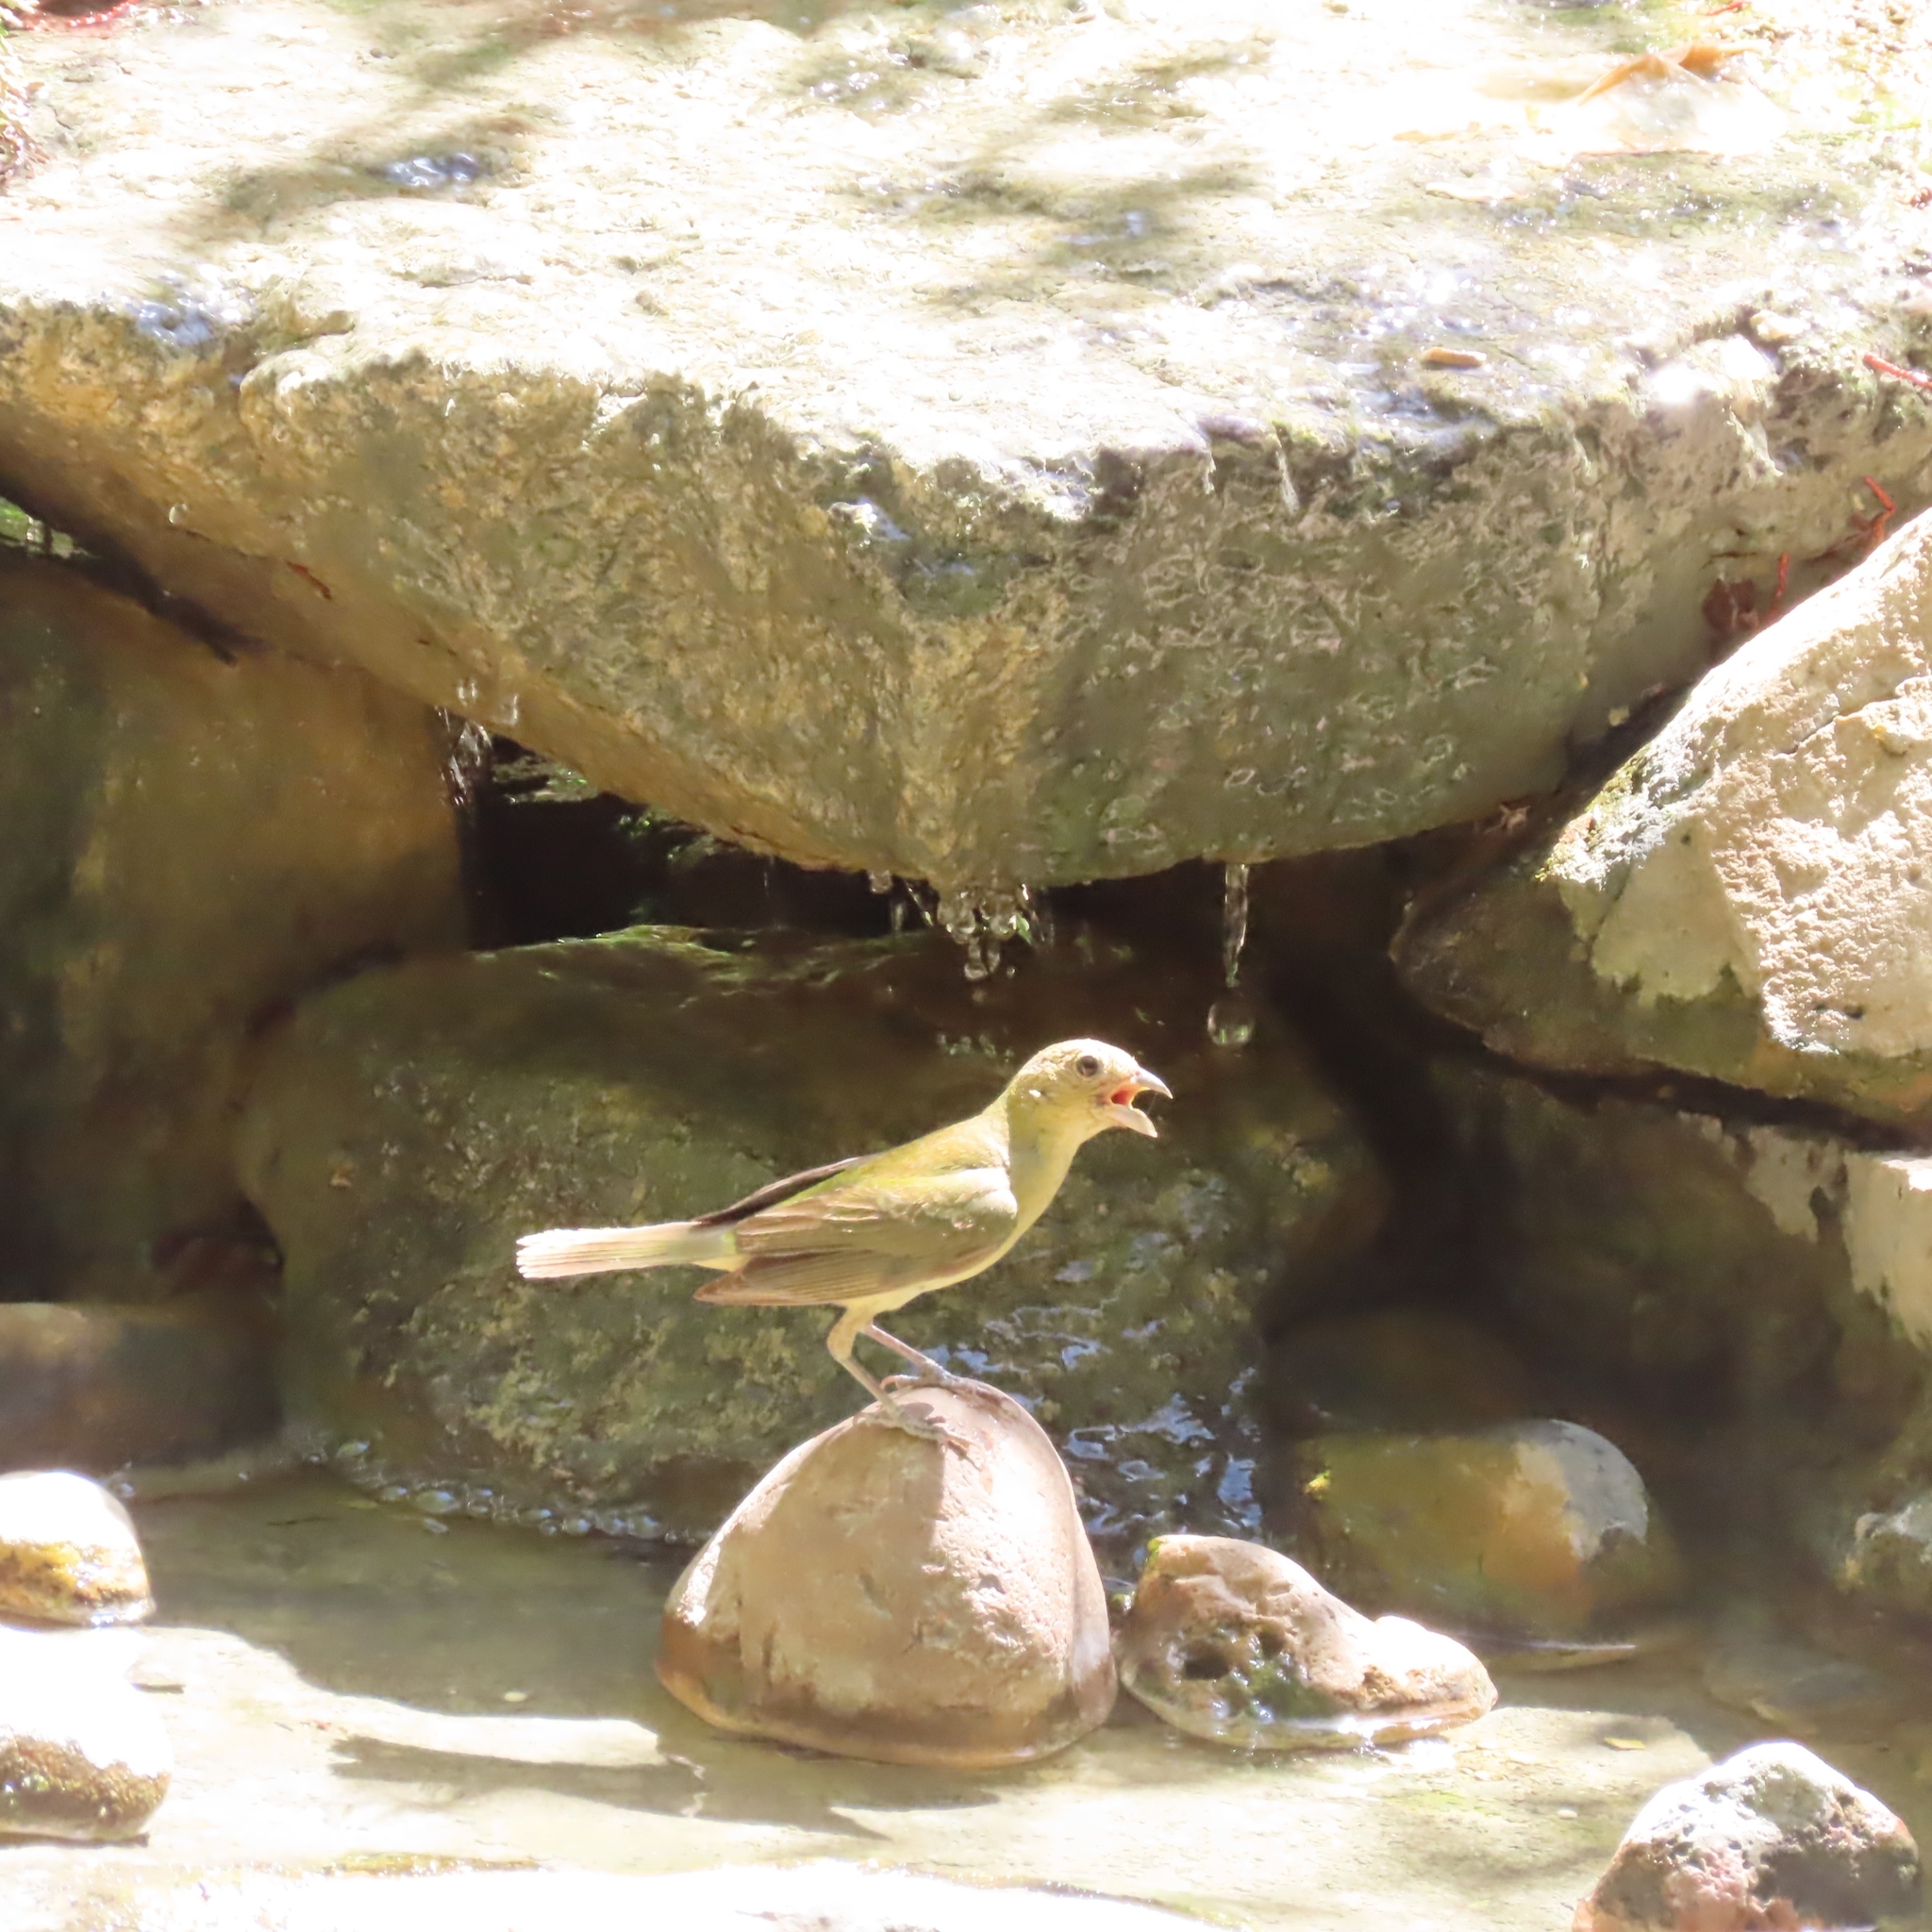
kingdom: Animalia
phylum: Chordata
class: Aves
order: Passeriformes
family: Cardinalidae
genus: Passerina
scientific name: Passerina ciris
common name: Painted bunting
